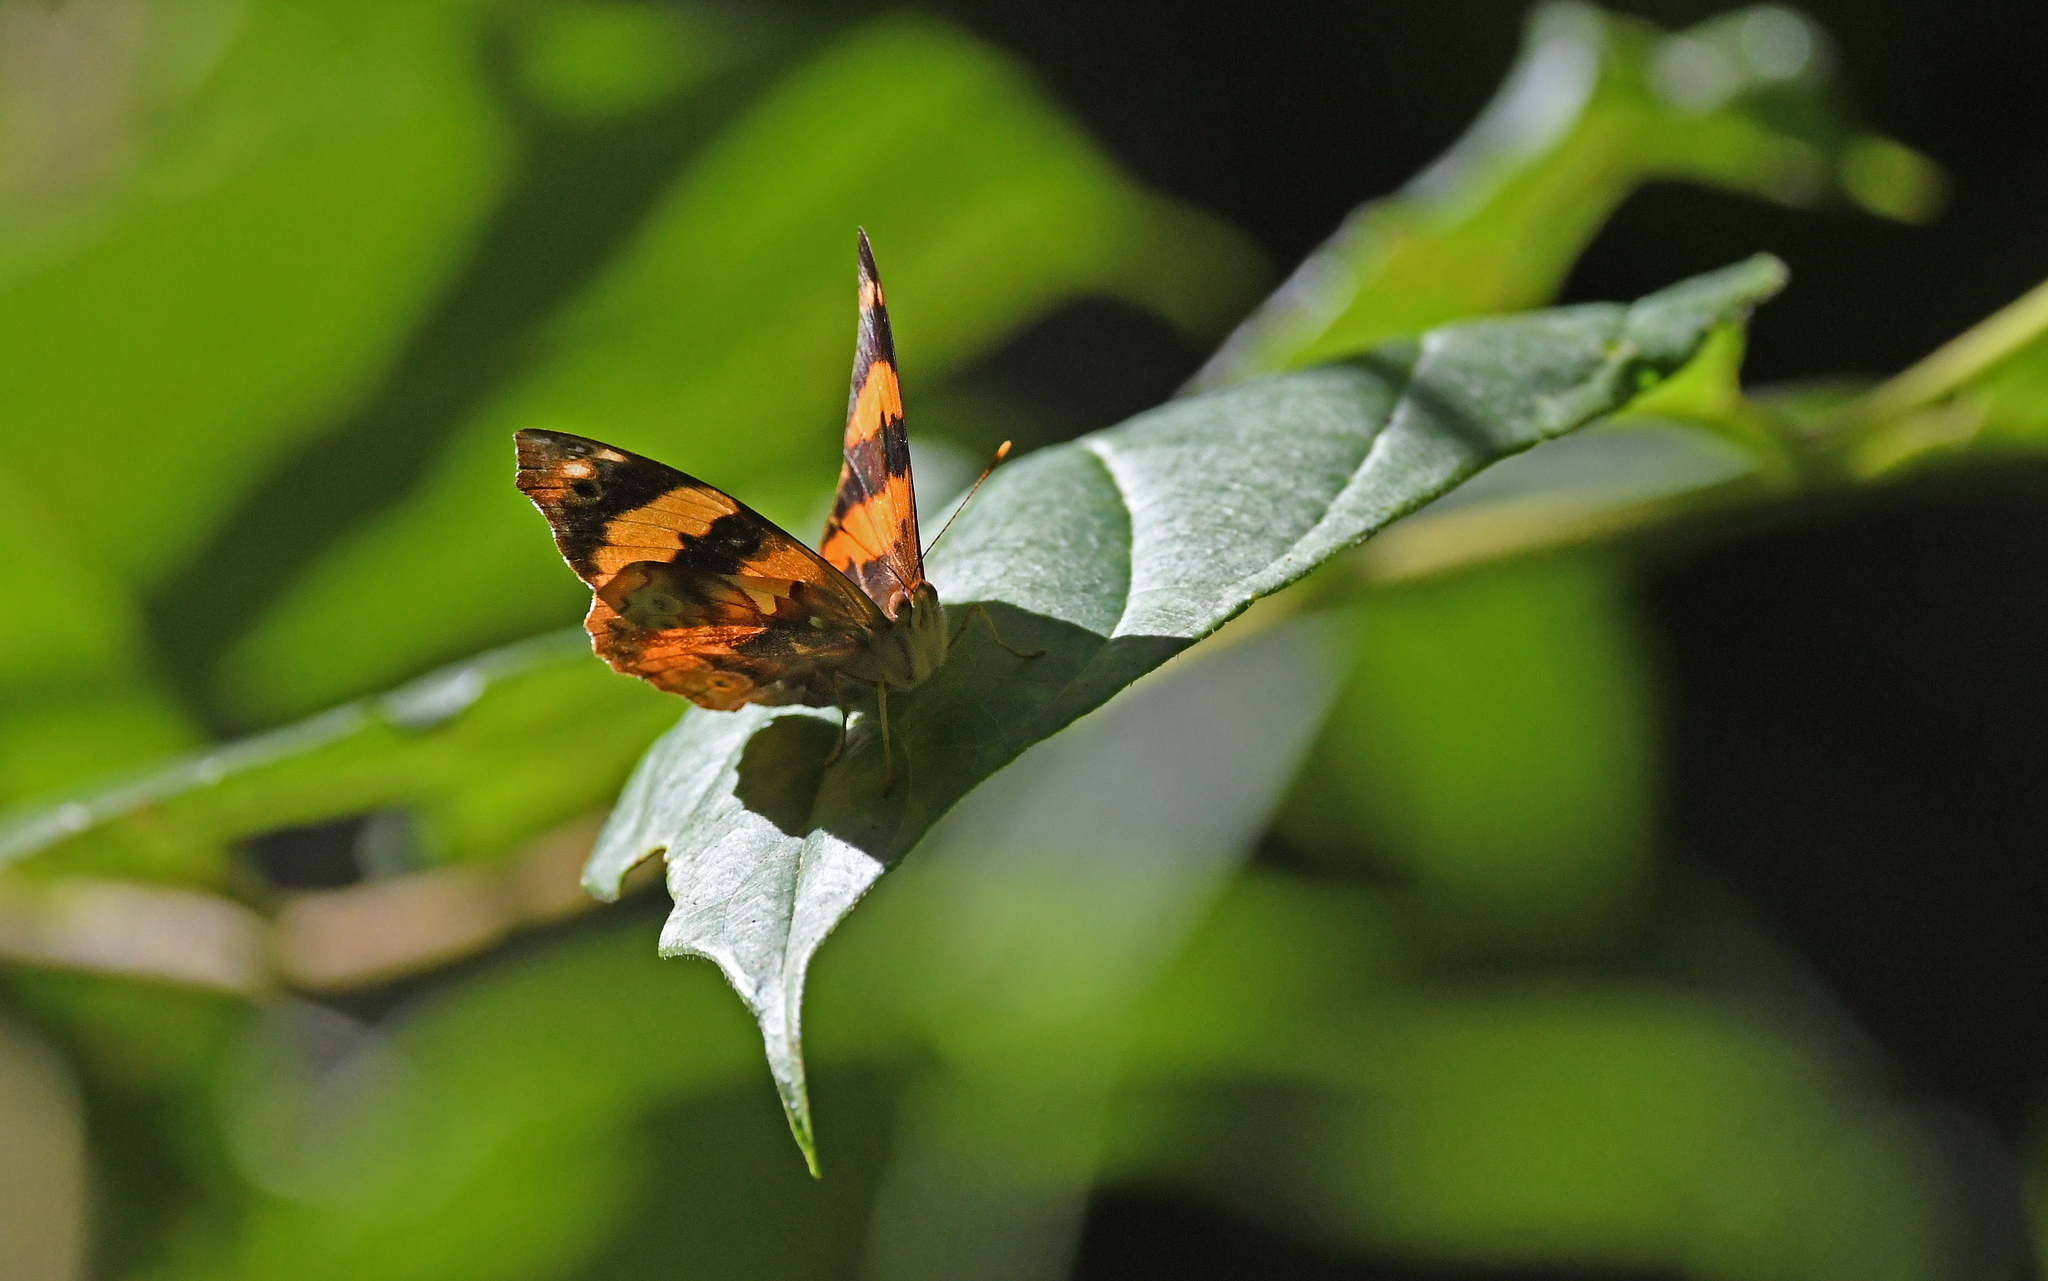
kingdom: Animalia
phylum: Arthropoda
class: Insecta
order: Lepidoptera
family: Nymphalidae
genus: Epiphile
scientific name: Epiphile chrysites
